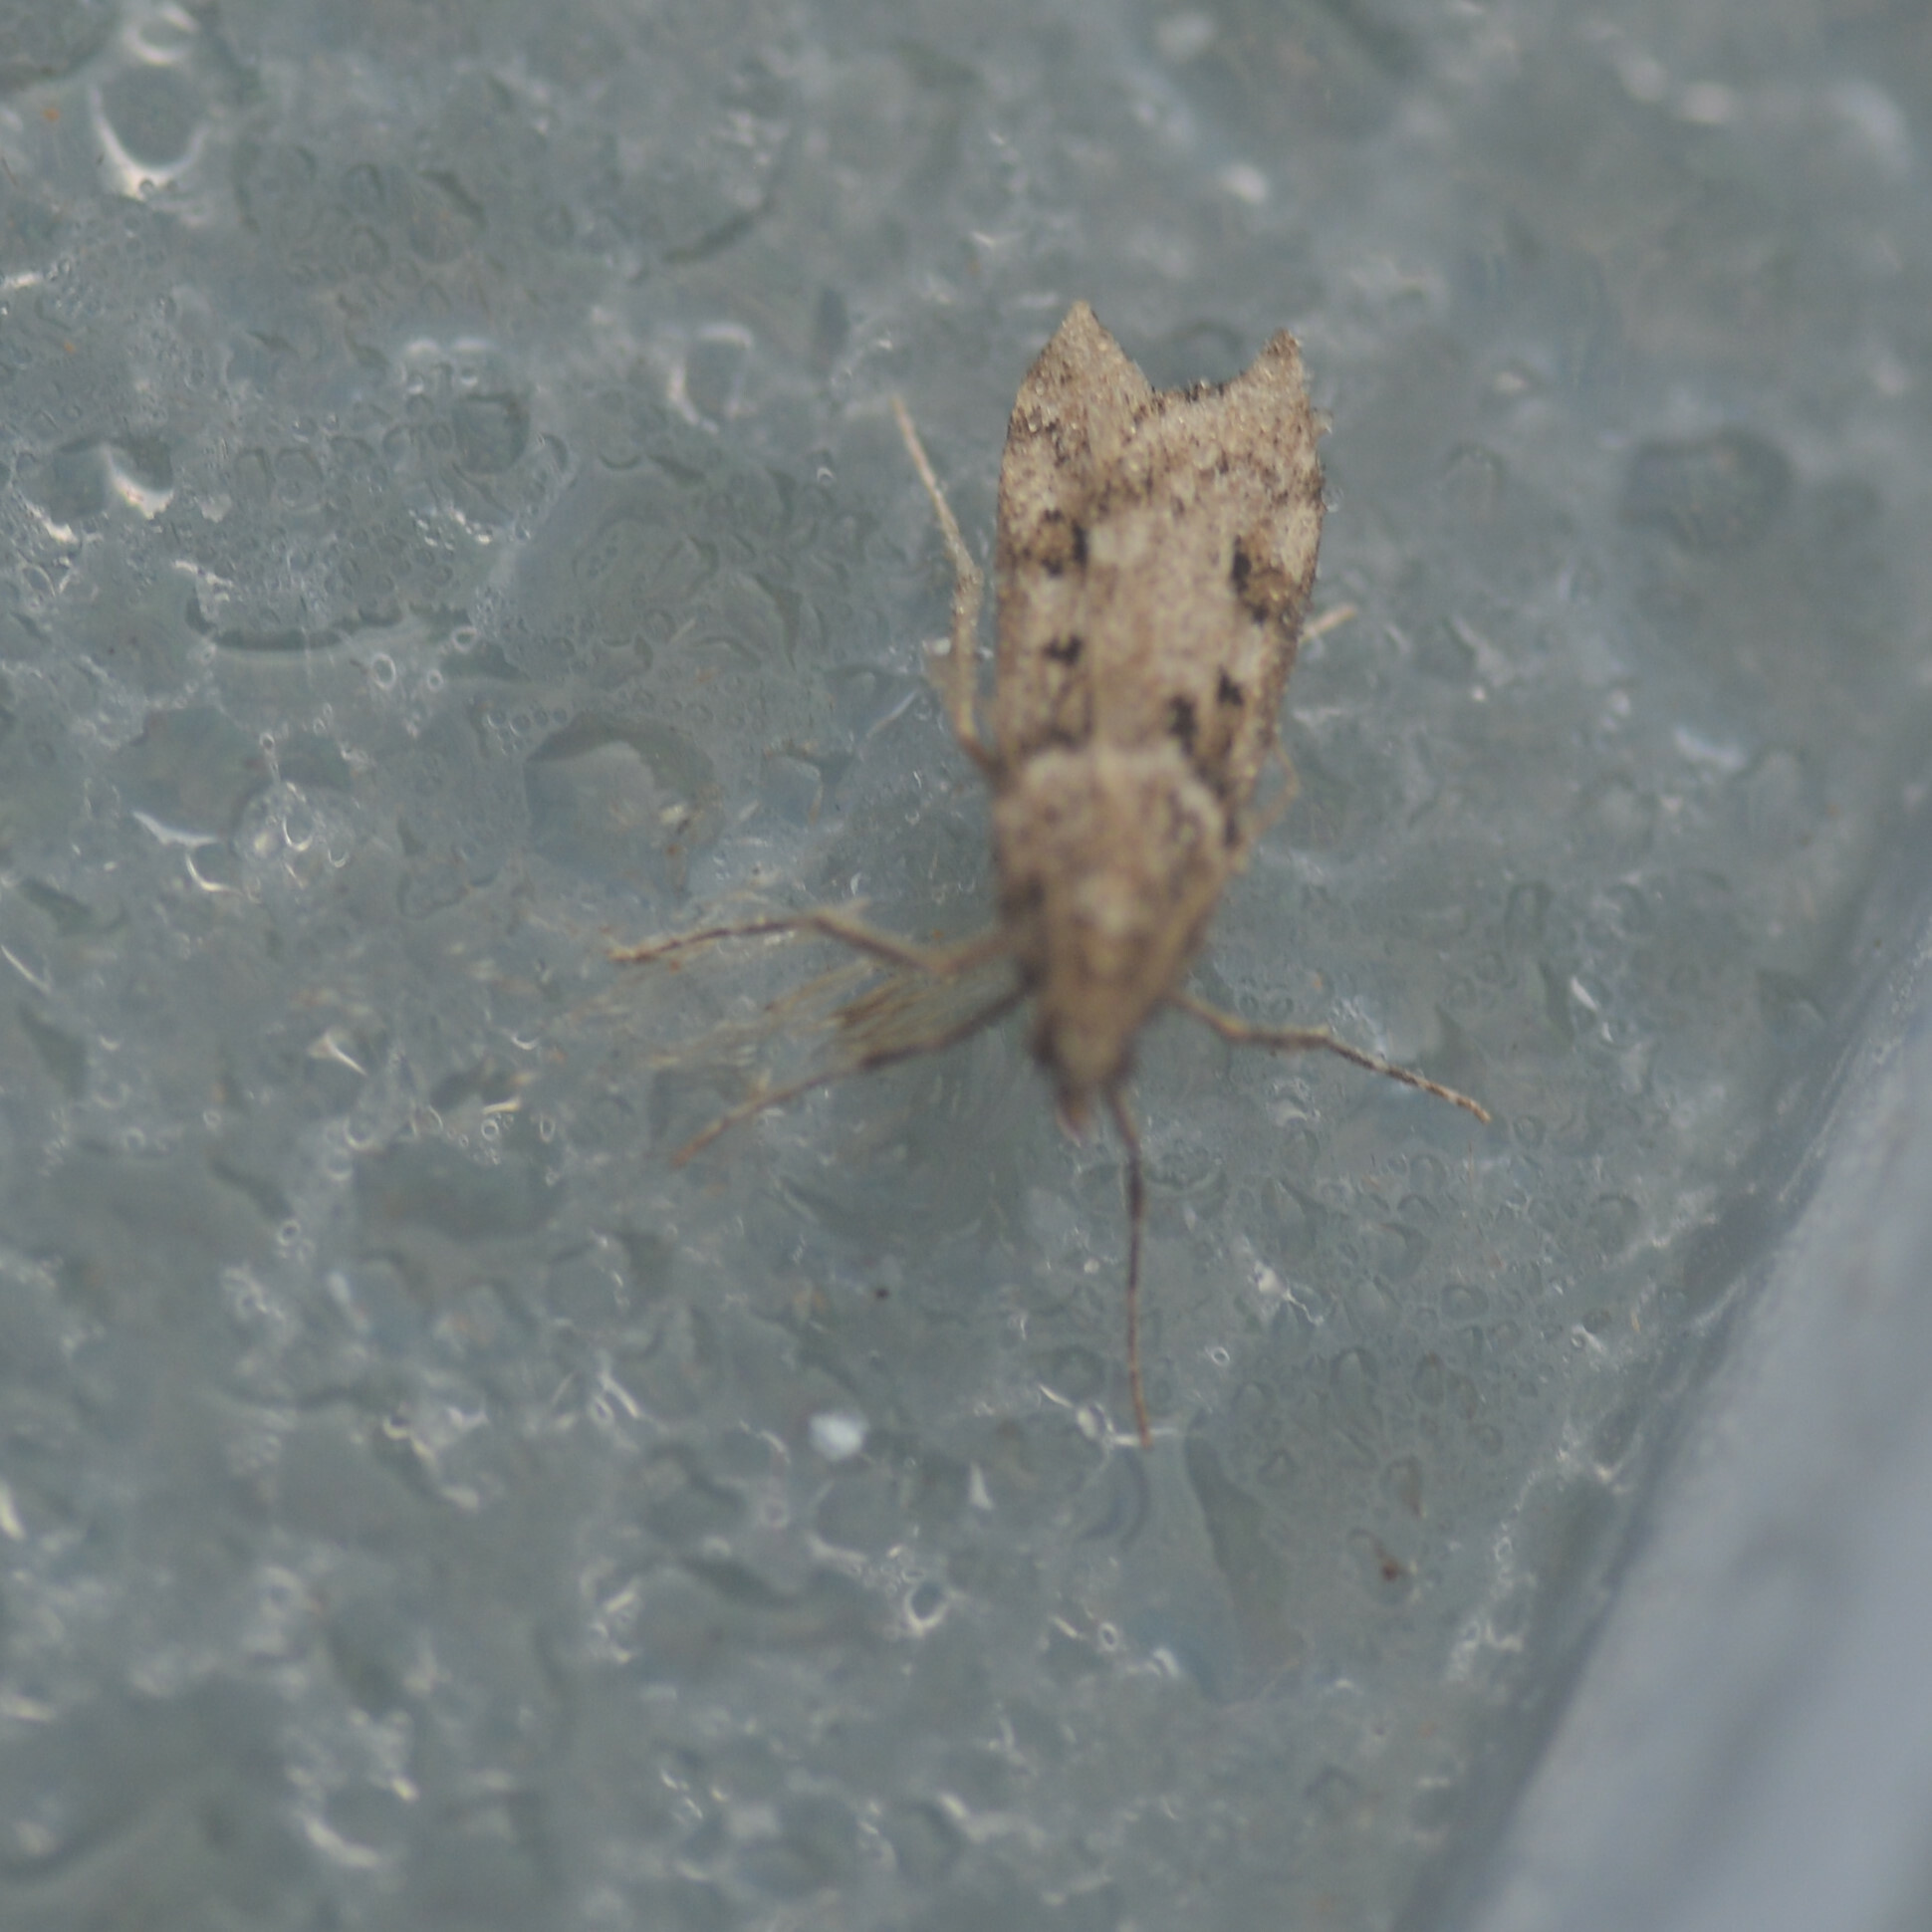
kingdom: Animalia
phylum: Arthropoda
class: Insecta
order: Lepidoptera
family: Crambidae
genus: Eudonia
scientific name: Eudonia angustea
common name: Narrow-winged grey
